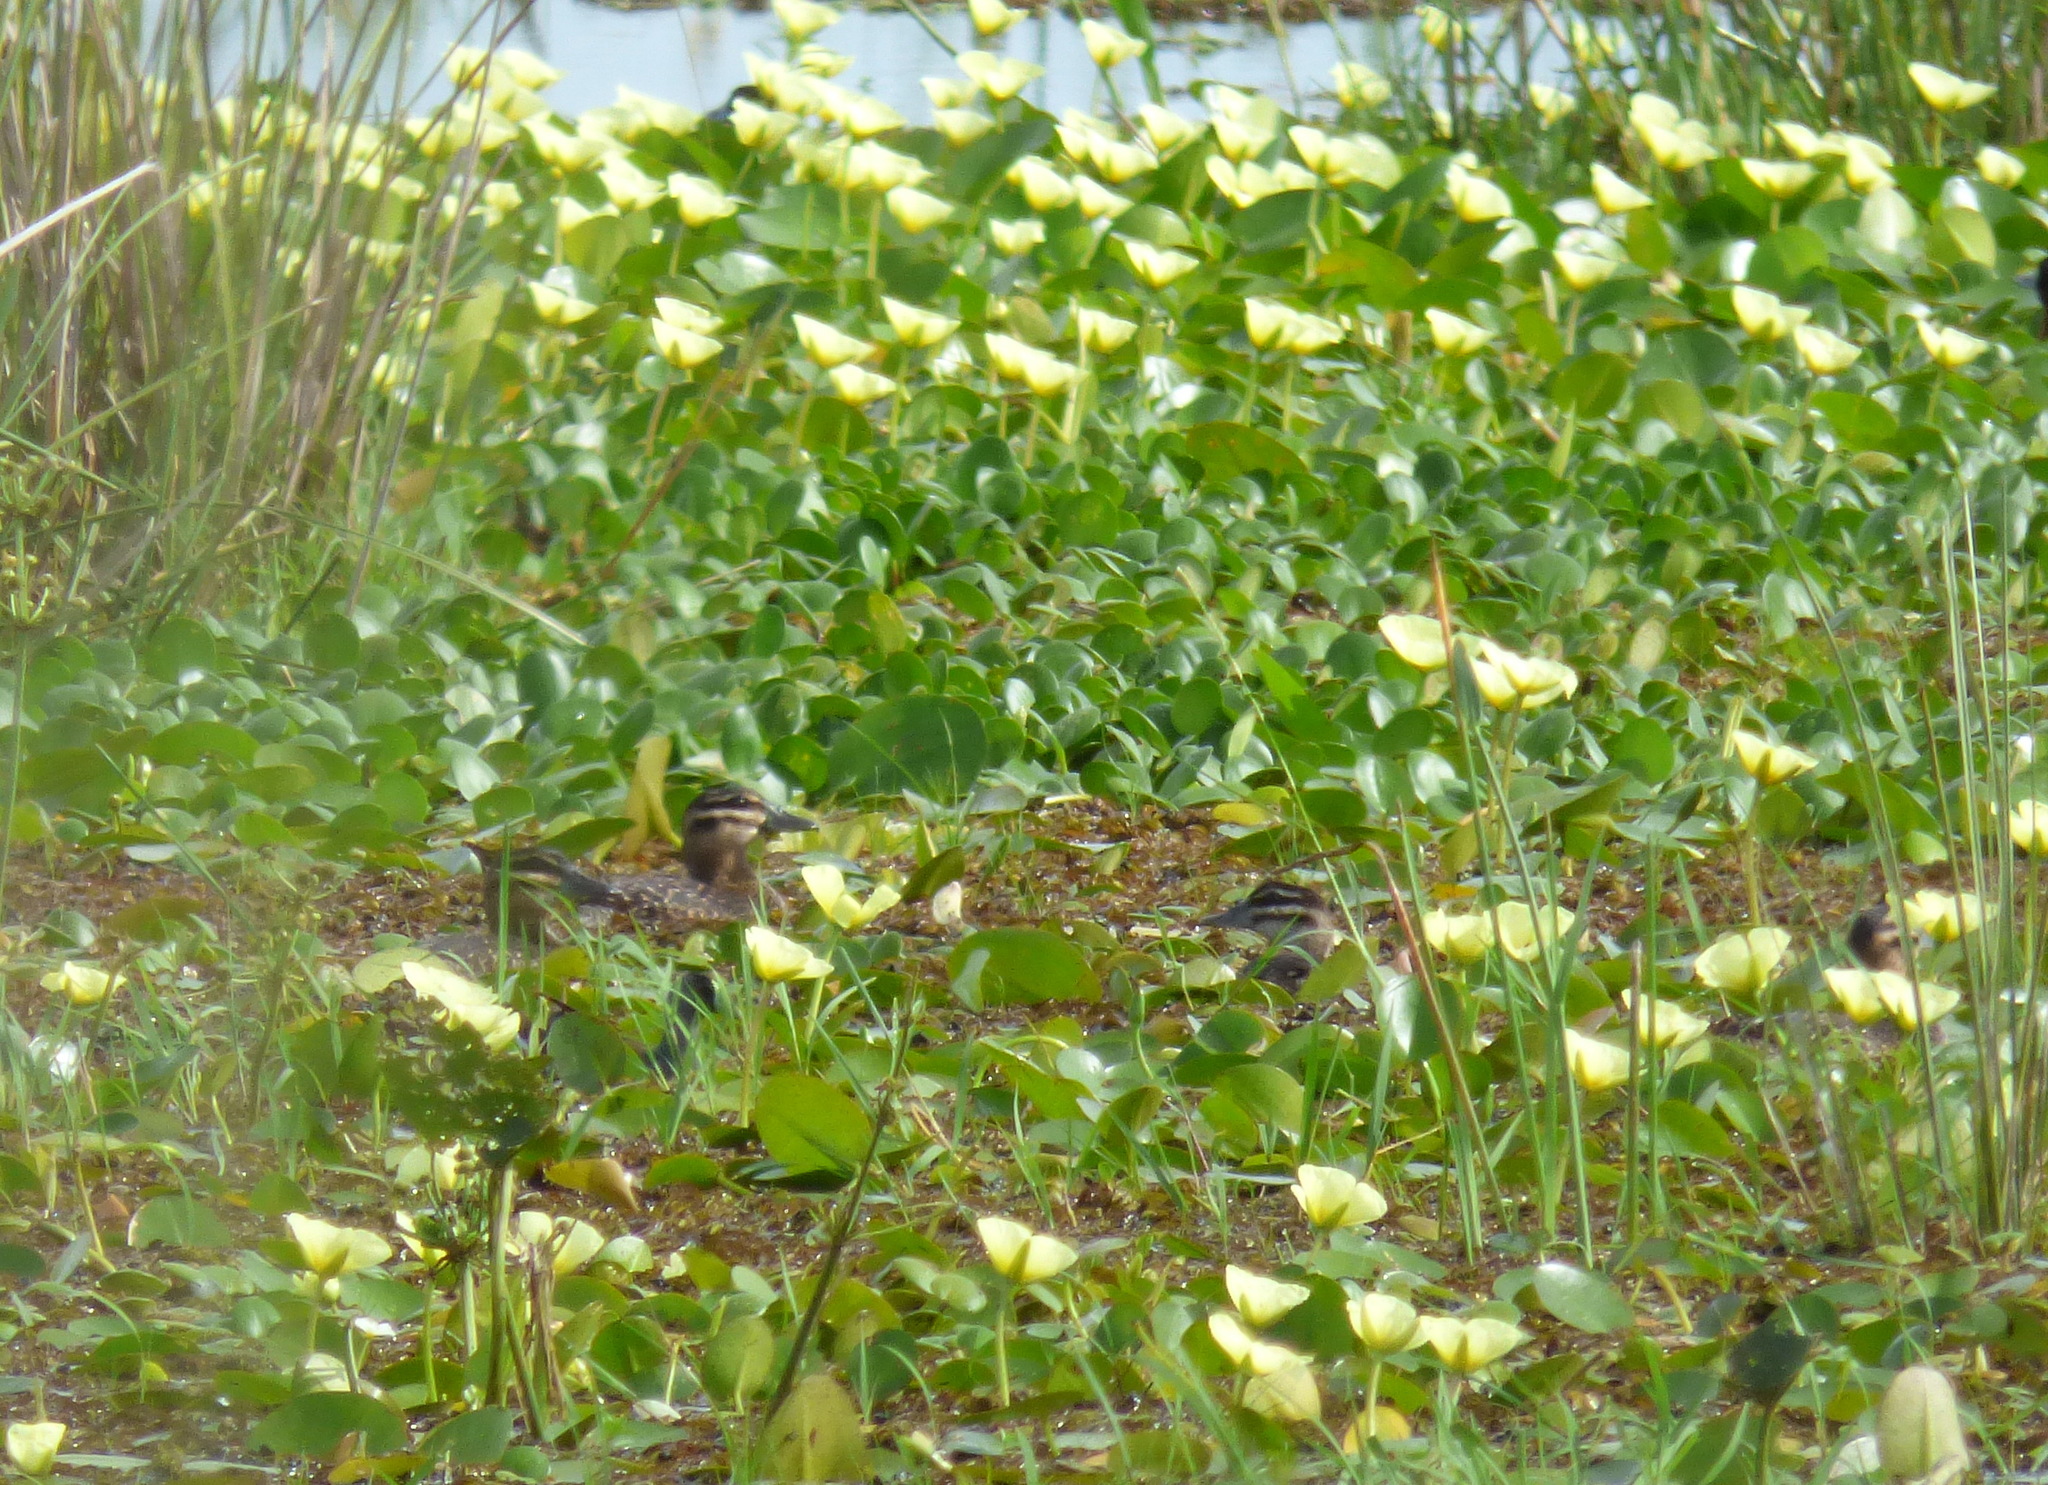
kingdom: Animalia
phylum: Chordata
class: Aves
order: Anseriformes
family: Anatidae
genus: Nomonyx
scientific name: Nomonyx dominicus
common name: Masked duck
